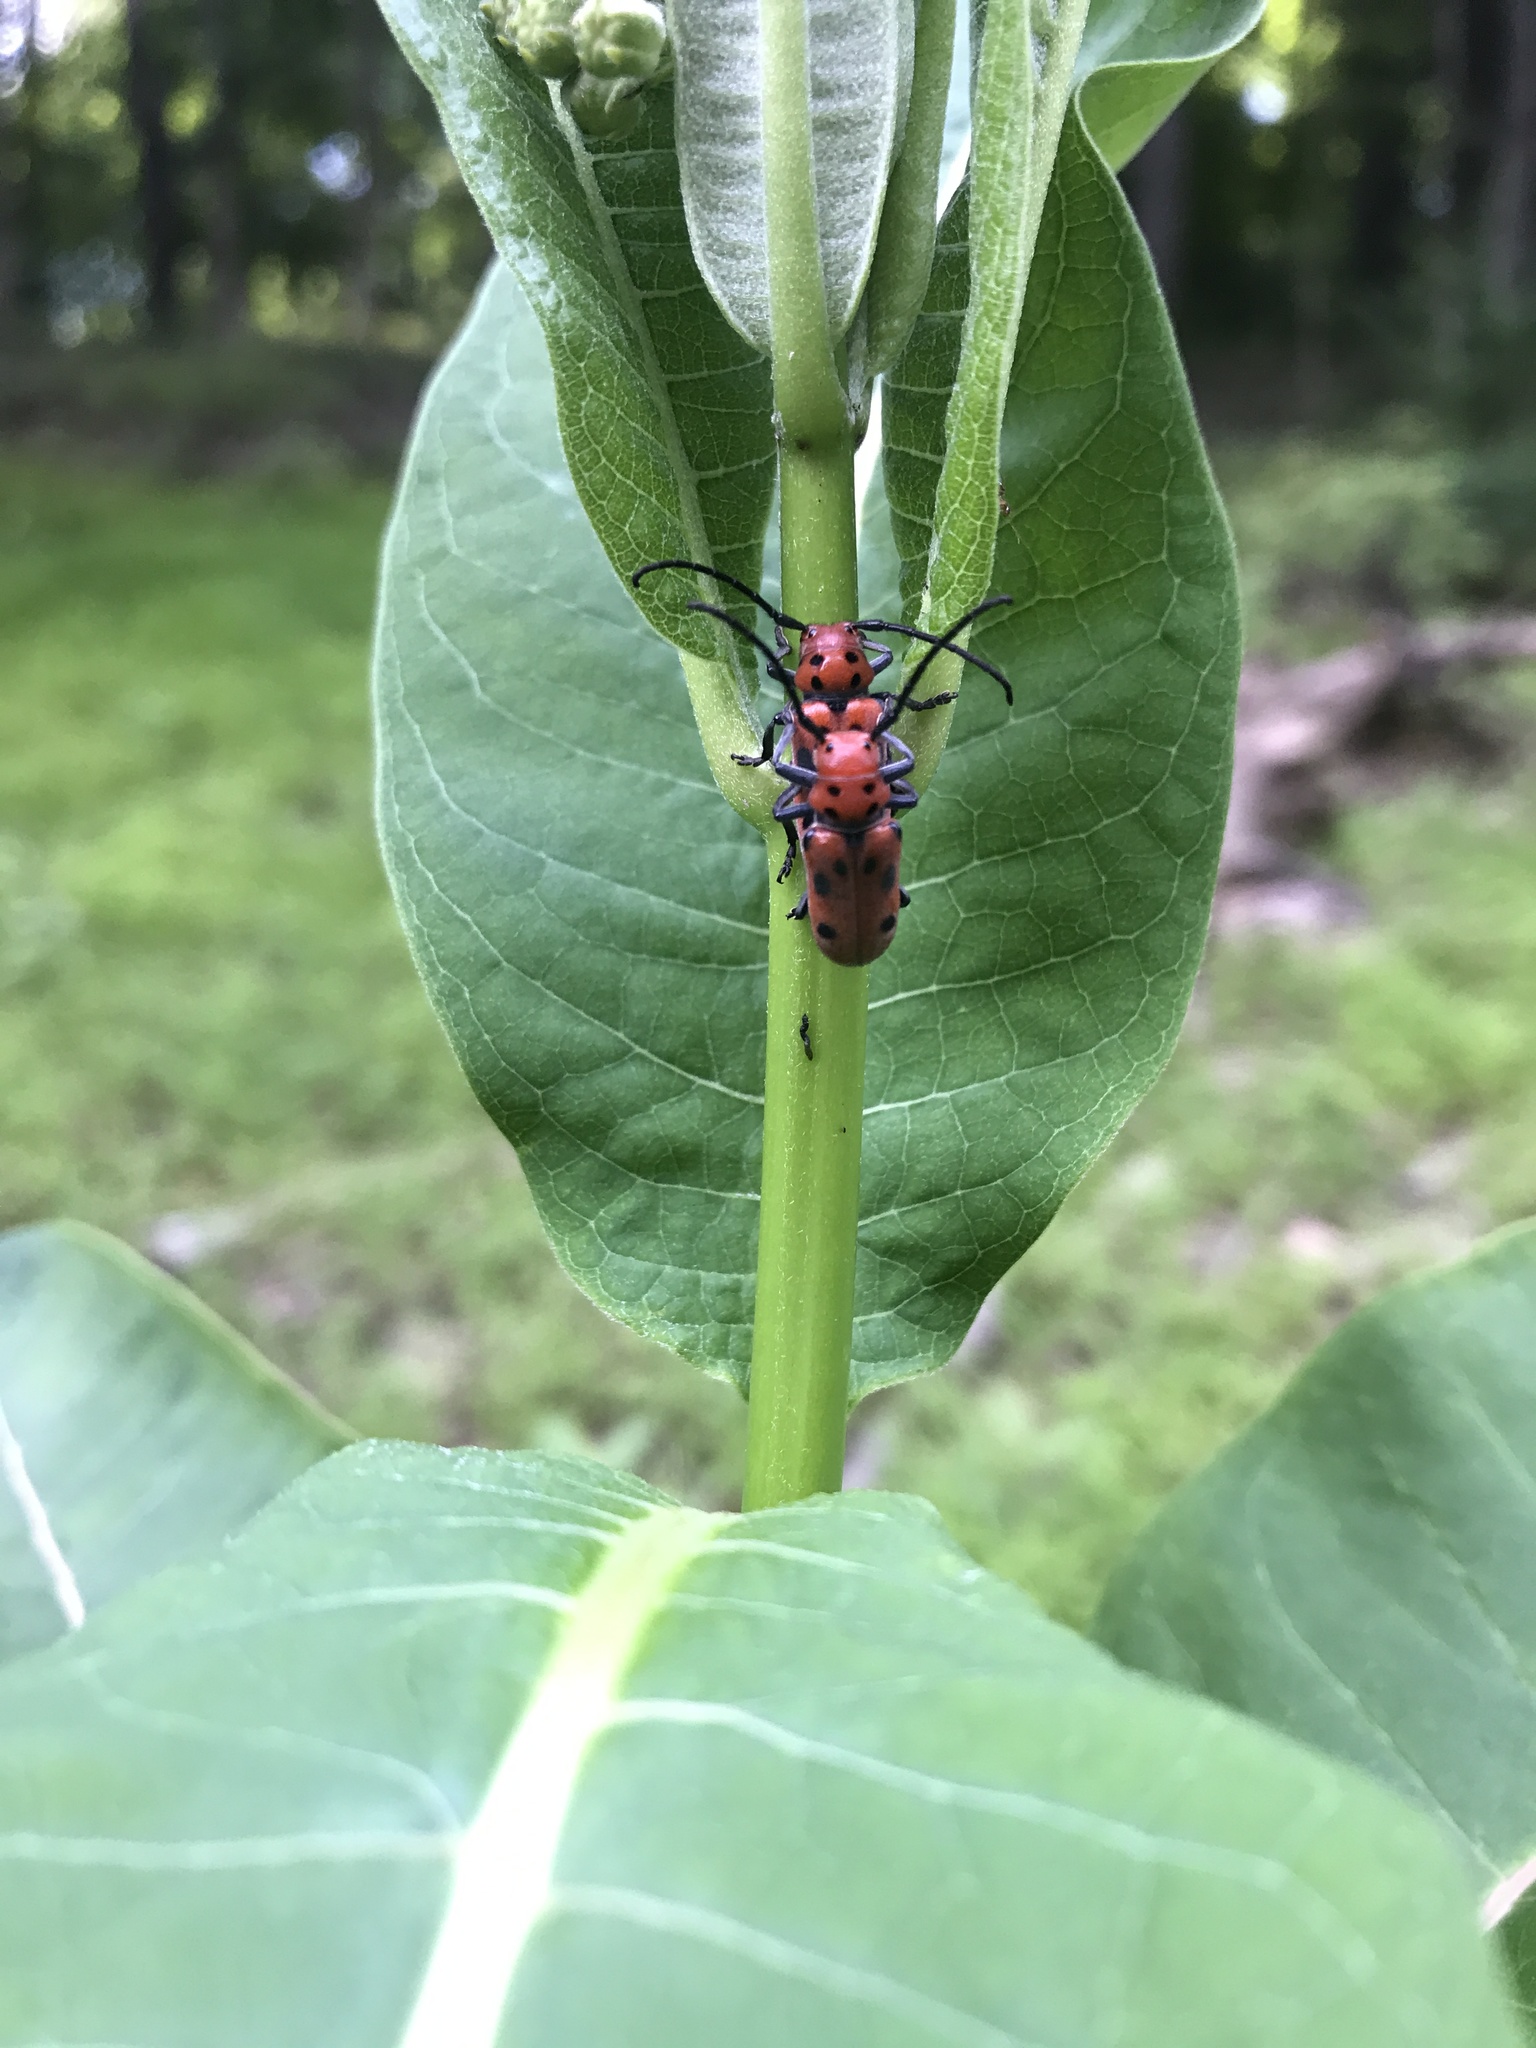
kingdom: Animalia
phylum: Arthropoda
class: Insecta
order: Coleoptera
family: Cerambycidae
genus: Tetraopes
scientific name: Tetraopes tetrophthalmus
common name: Red milkweed beetle
